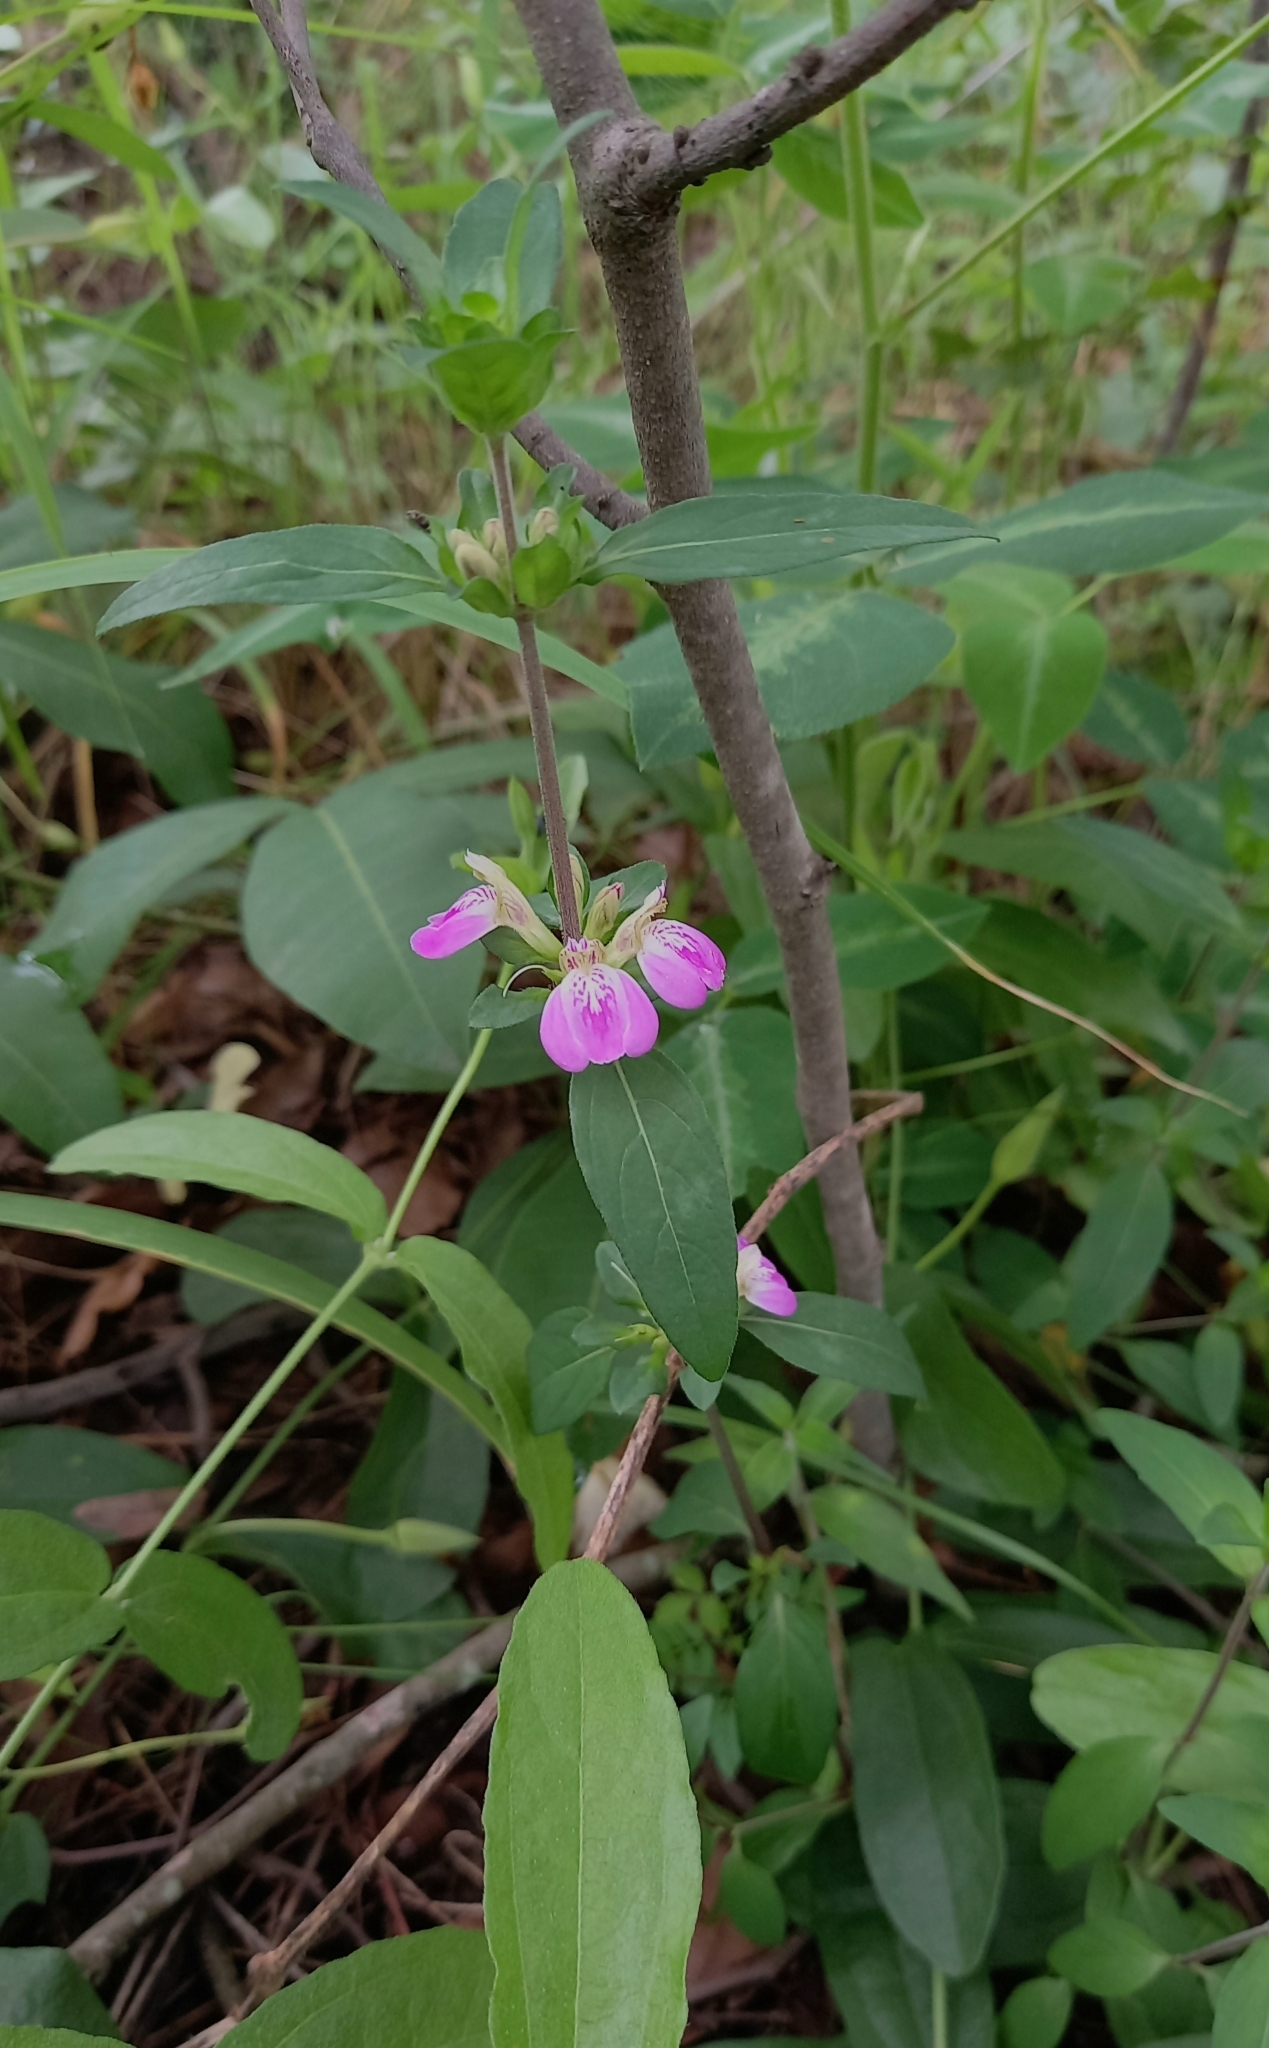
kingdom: Plantae
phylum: Tracheophyta
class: Magnoliopsida
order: Lamiales
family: Acanthaceae
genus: Justicia
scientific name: Justicia phyllostachys
